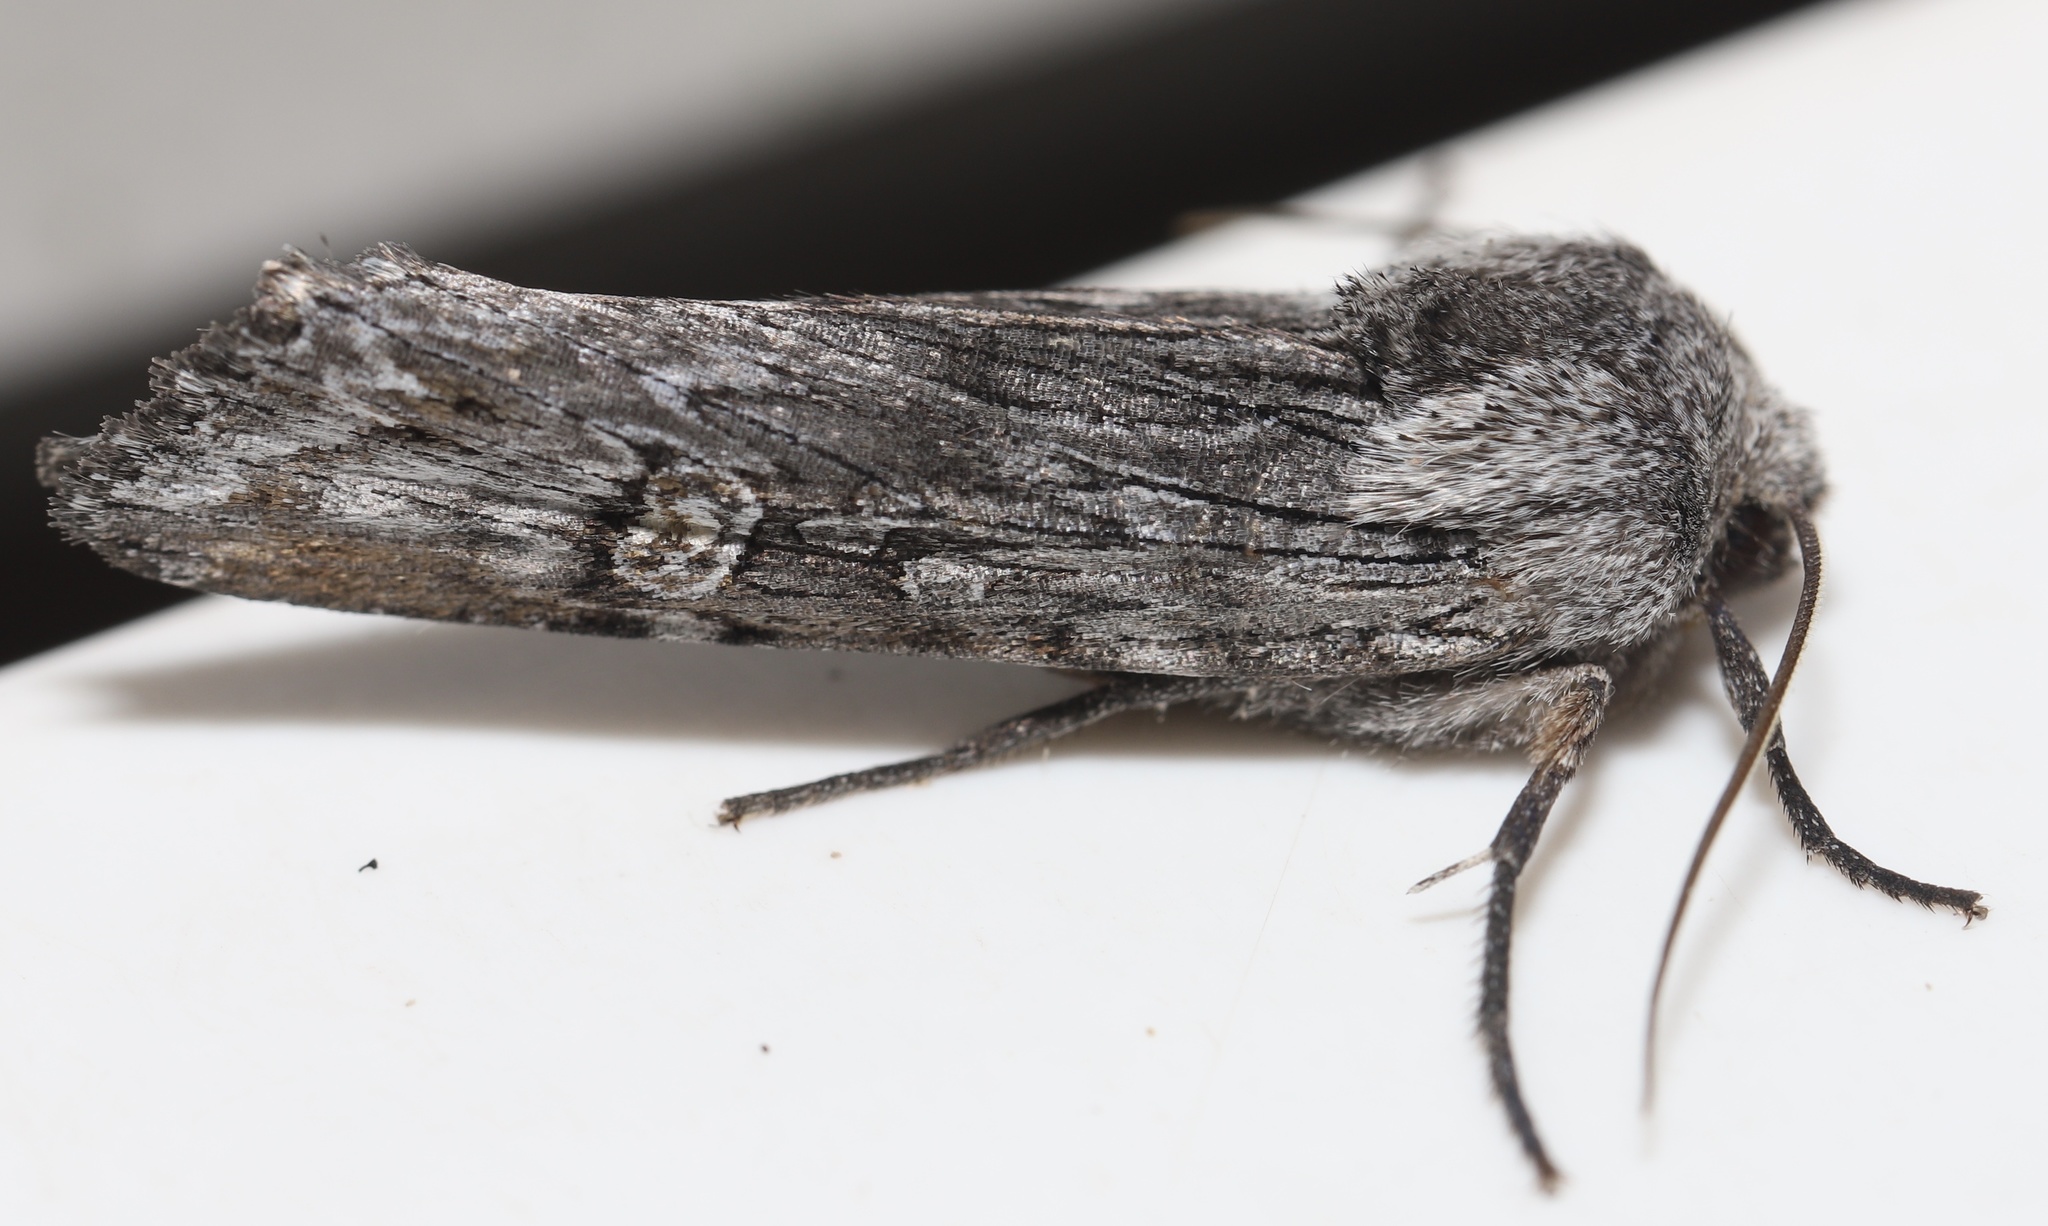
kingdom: Animalia
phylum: Arthropoda
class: Insecta
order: Lepidoptera
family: Noctuidae
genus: Xylena
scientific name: Xylena germana
